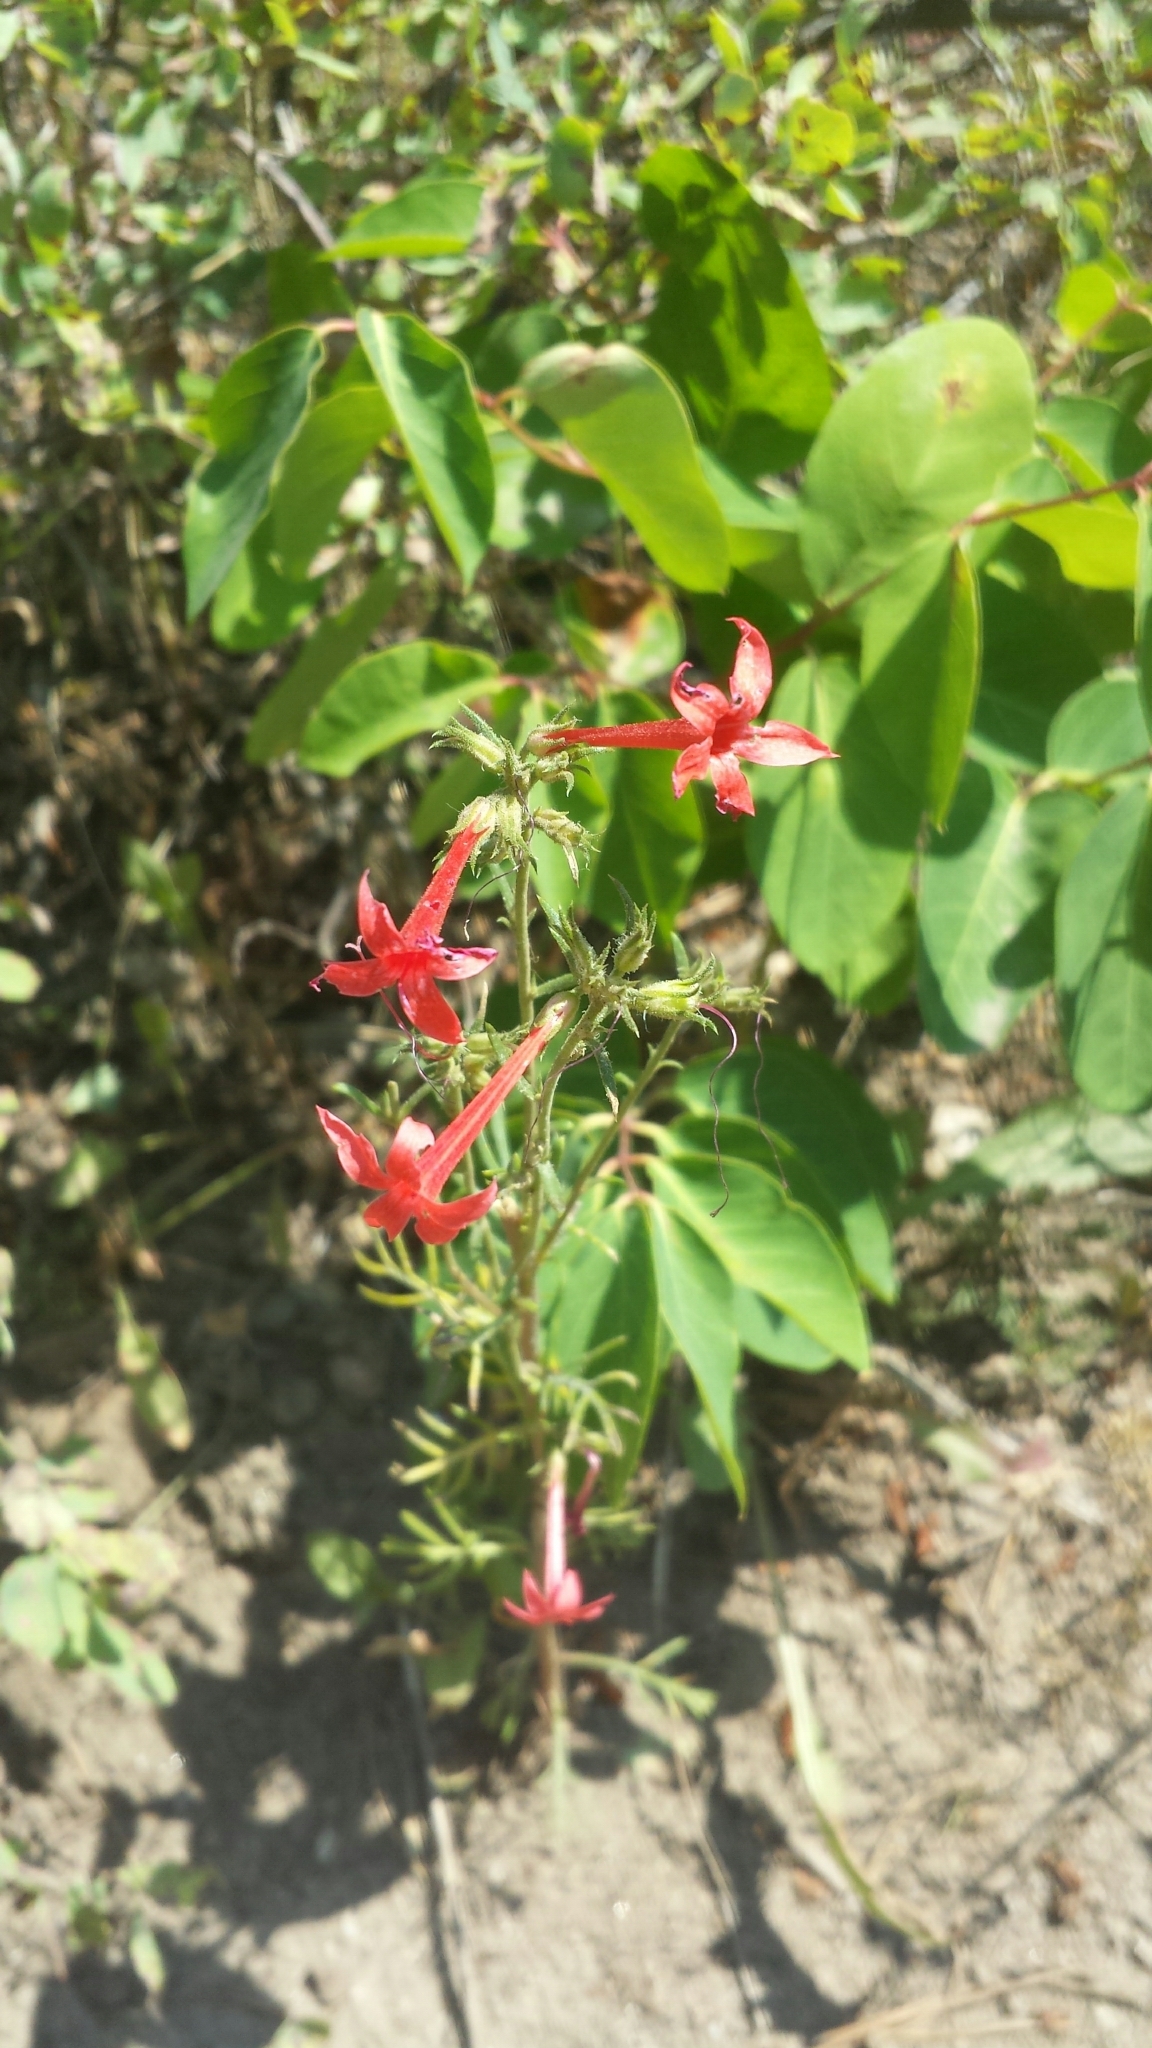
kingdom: Plantae
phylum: Tracheophyta
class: Magnoliopsida
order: Ericales
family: Polemoniaceae
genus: Ipomopsis
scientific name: Ipomopsis aggregata
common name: Scarlet gilia
